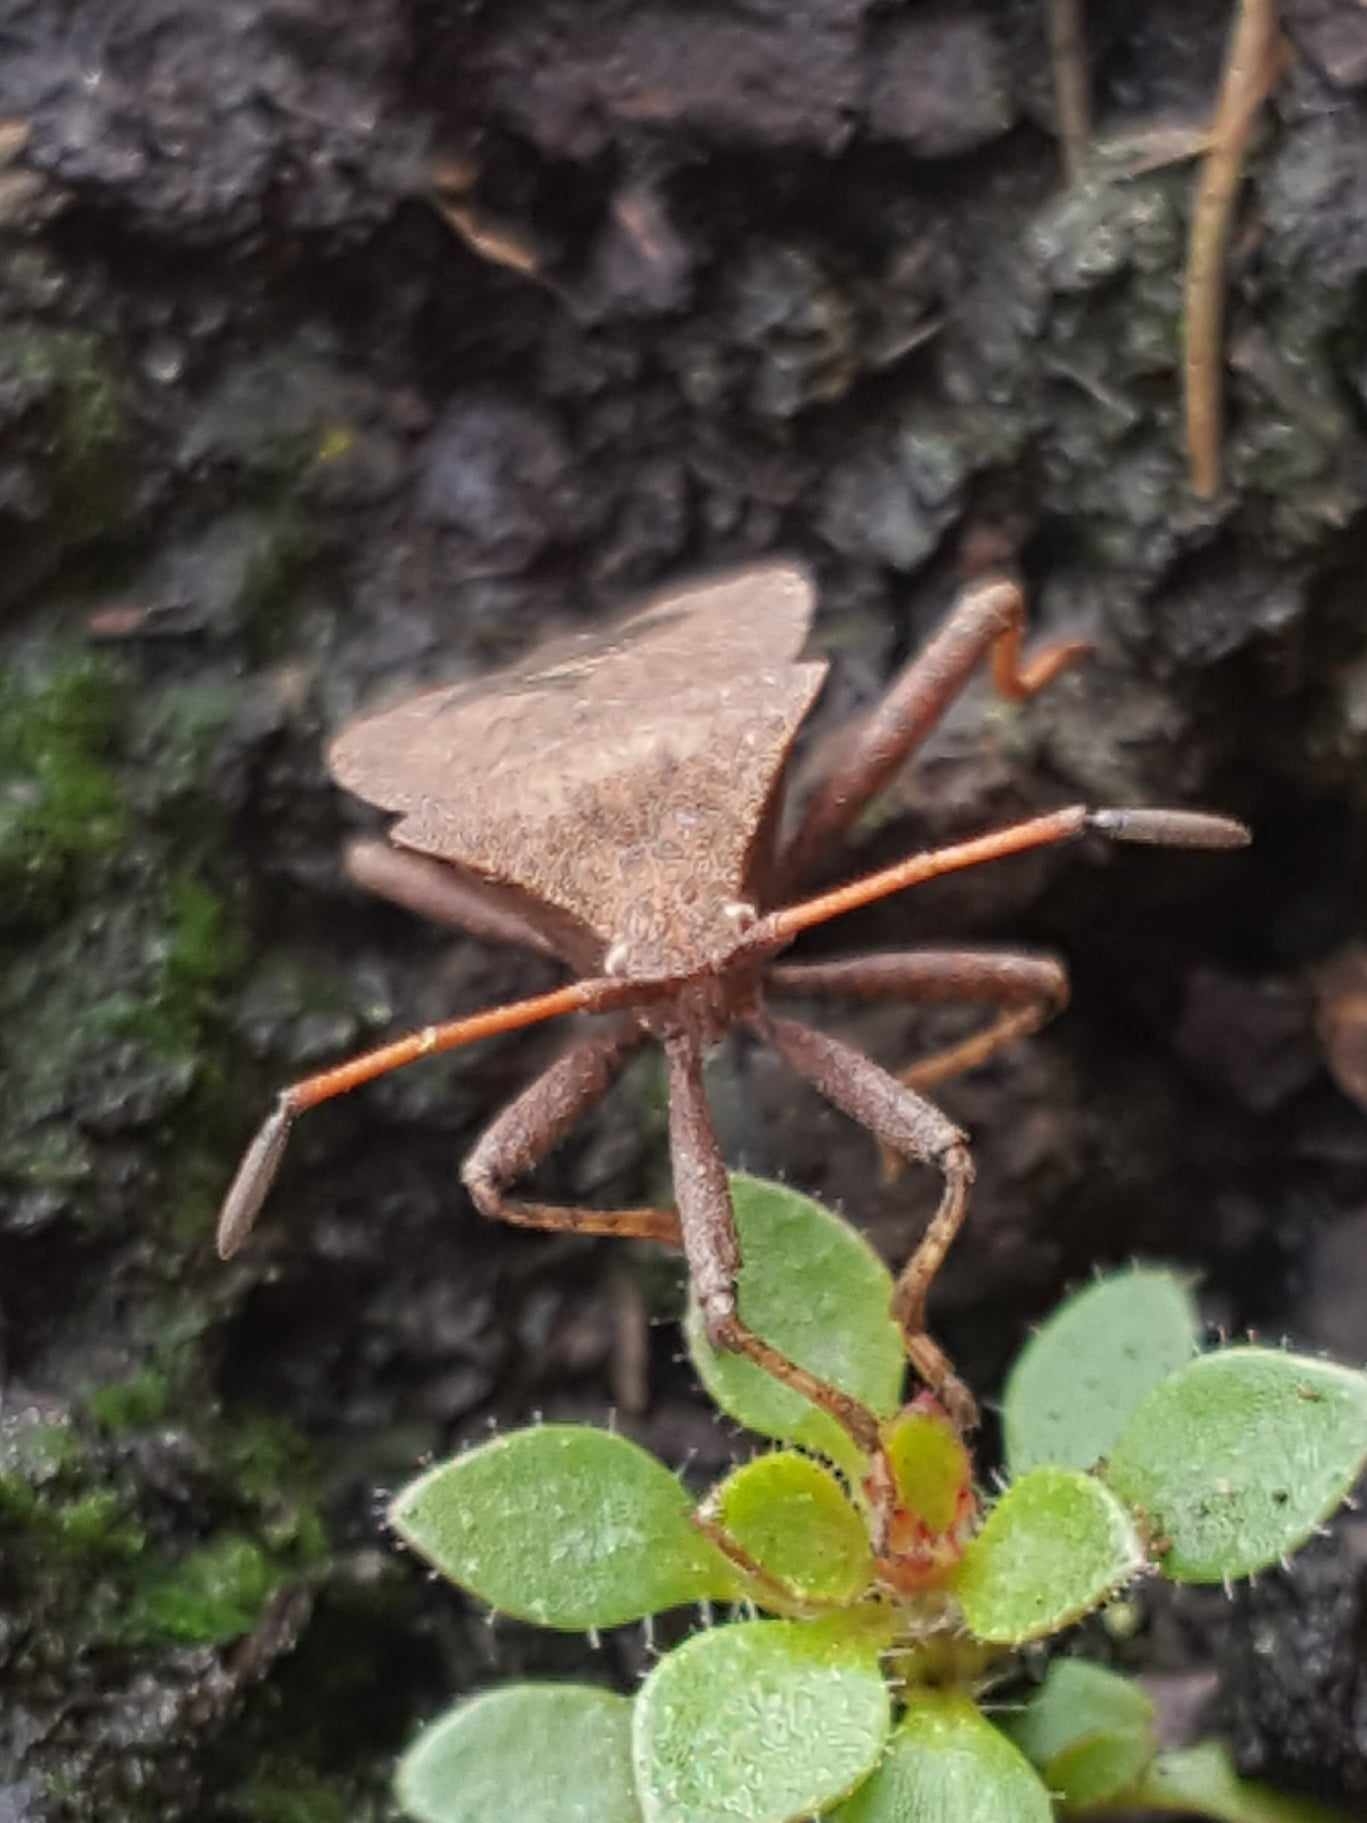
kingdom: Animalia
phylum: Arthropoda
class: Insecta
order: Hemiptera
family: Coreidae
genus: Coreus
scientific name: Coreus marginatus
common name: Dock bug
